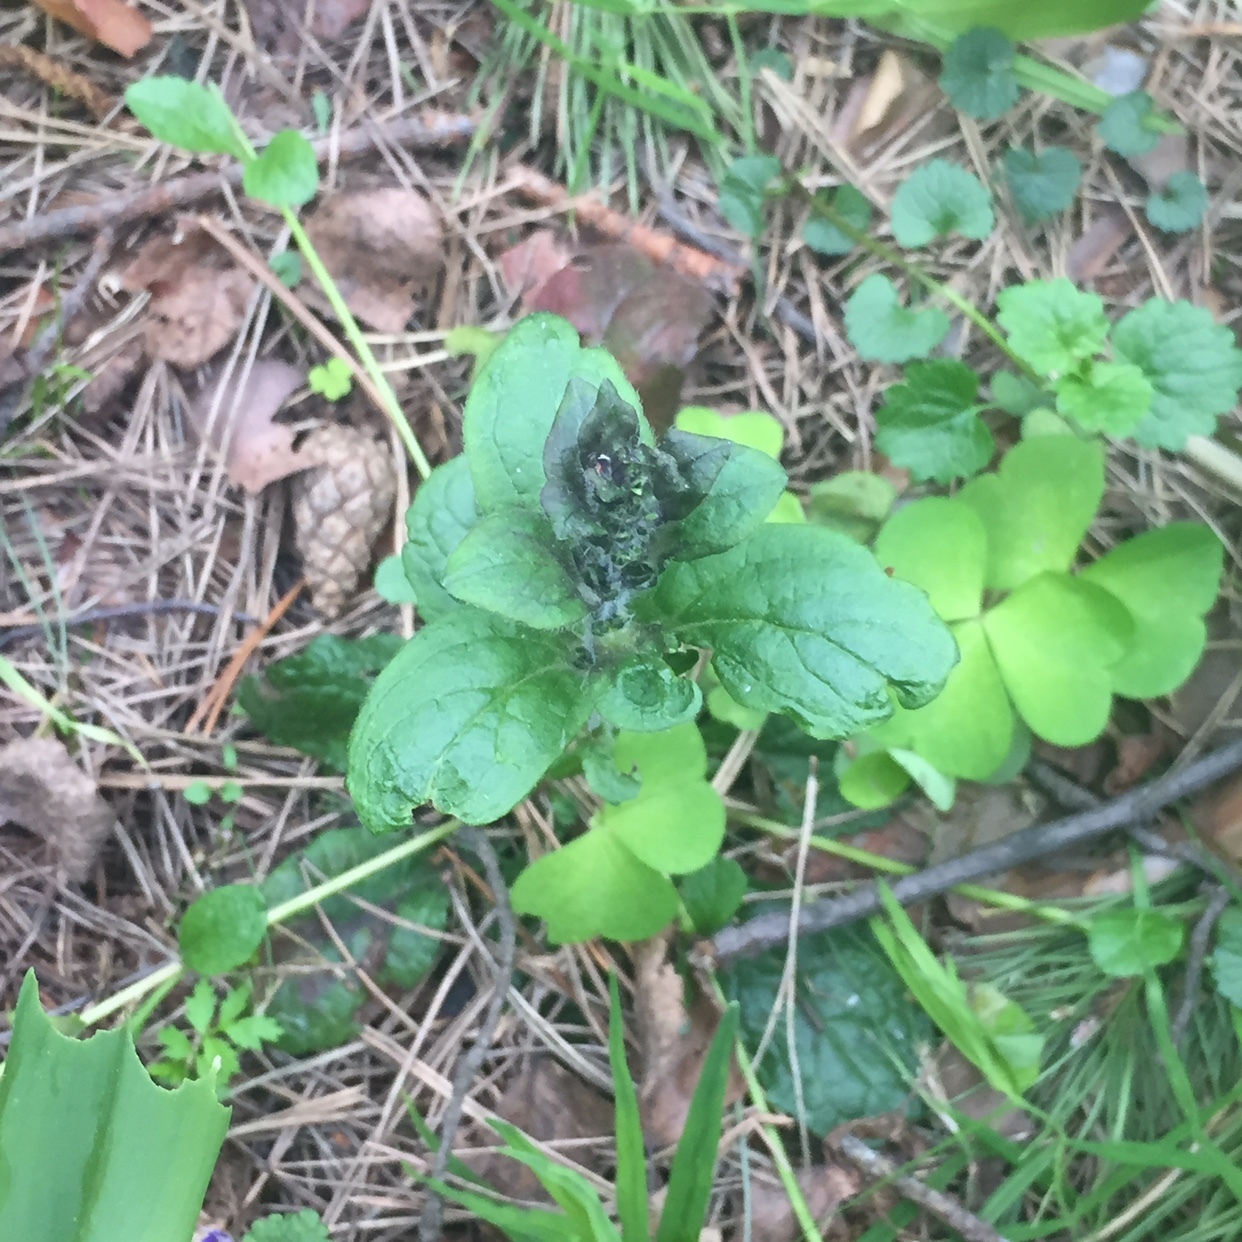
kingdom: Plantae
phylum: Tracheophyta
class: Magnoliopsida
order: Lamiales
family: Lamiaceae
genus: Ajuga
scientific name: Ajuga reptans
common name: Bugle
